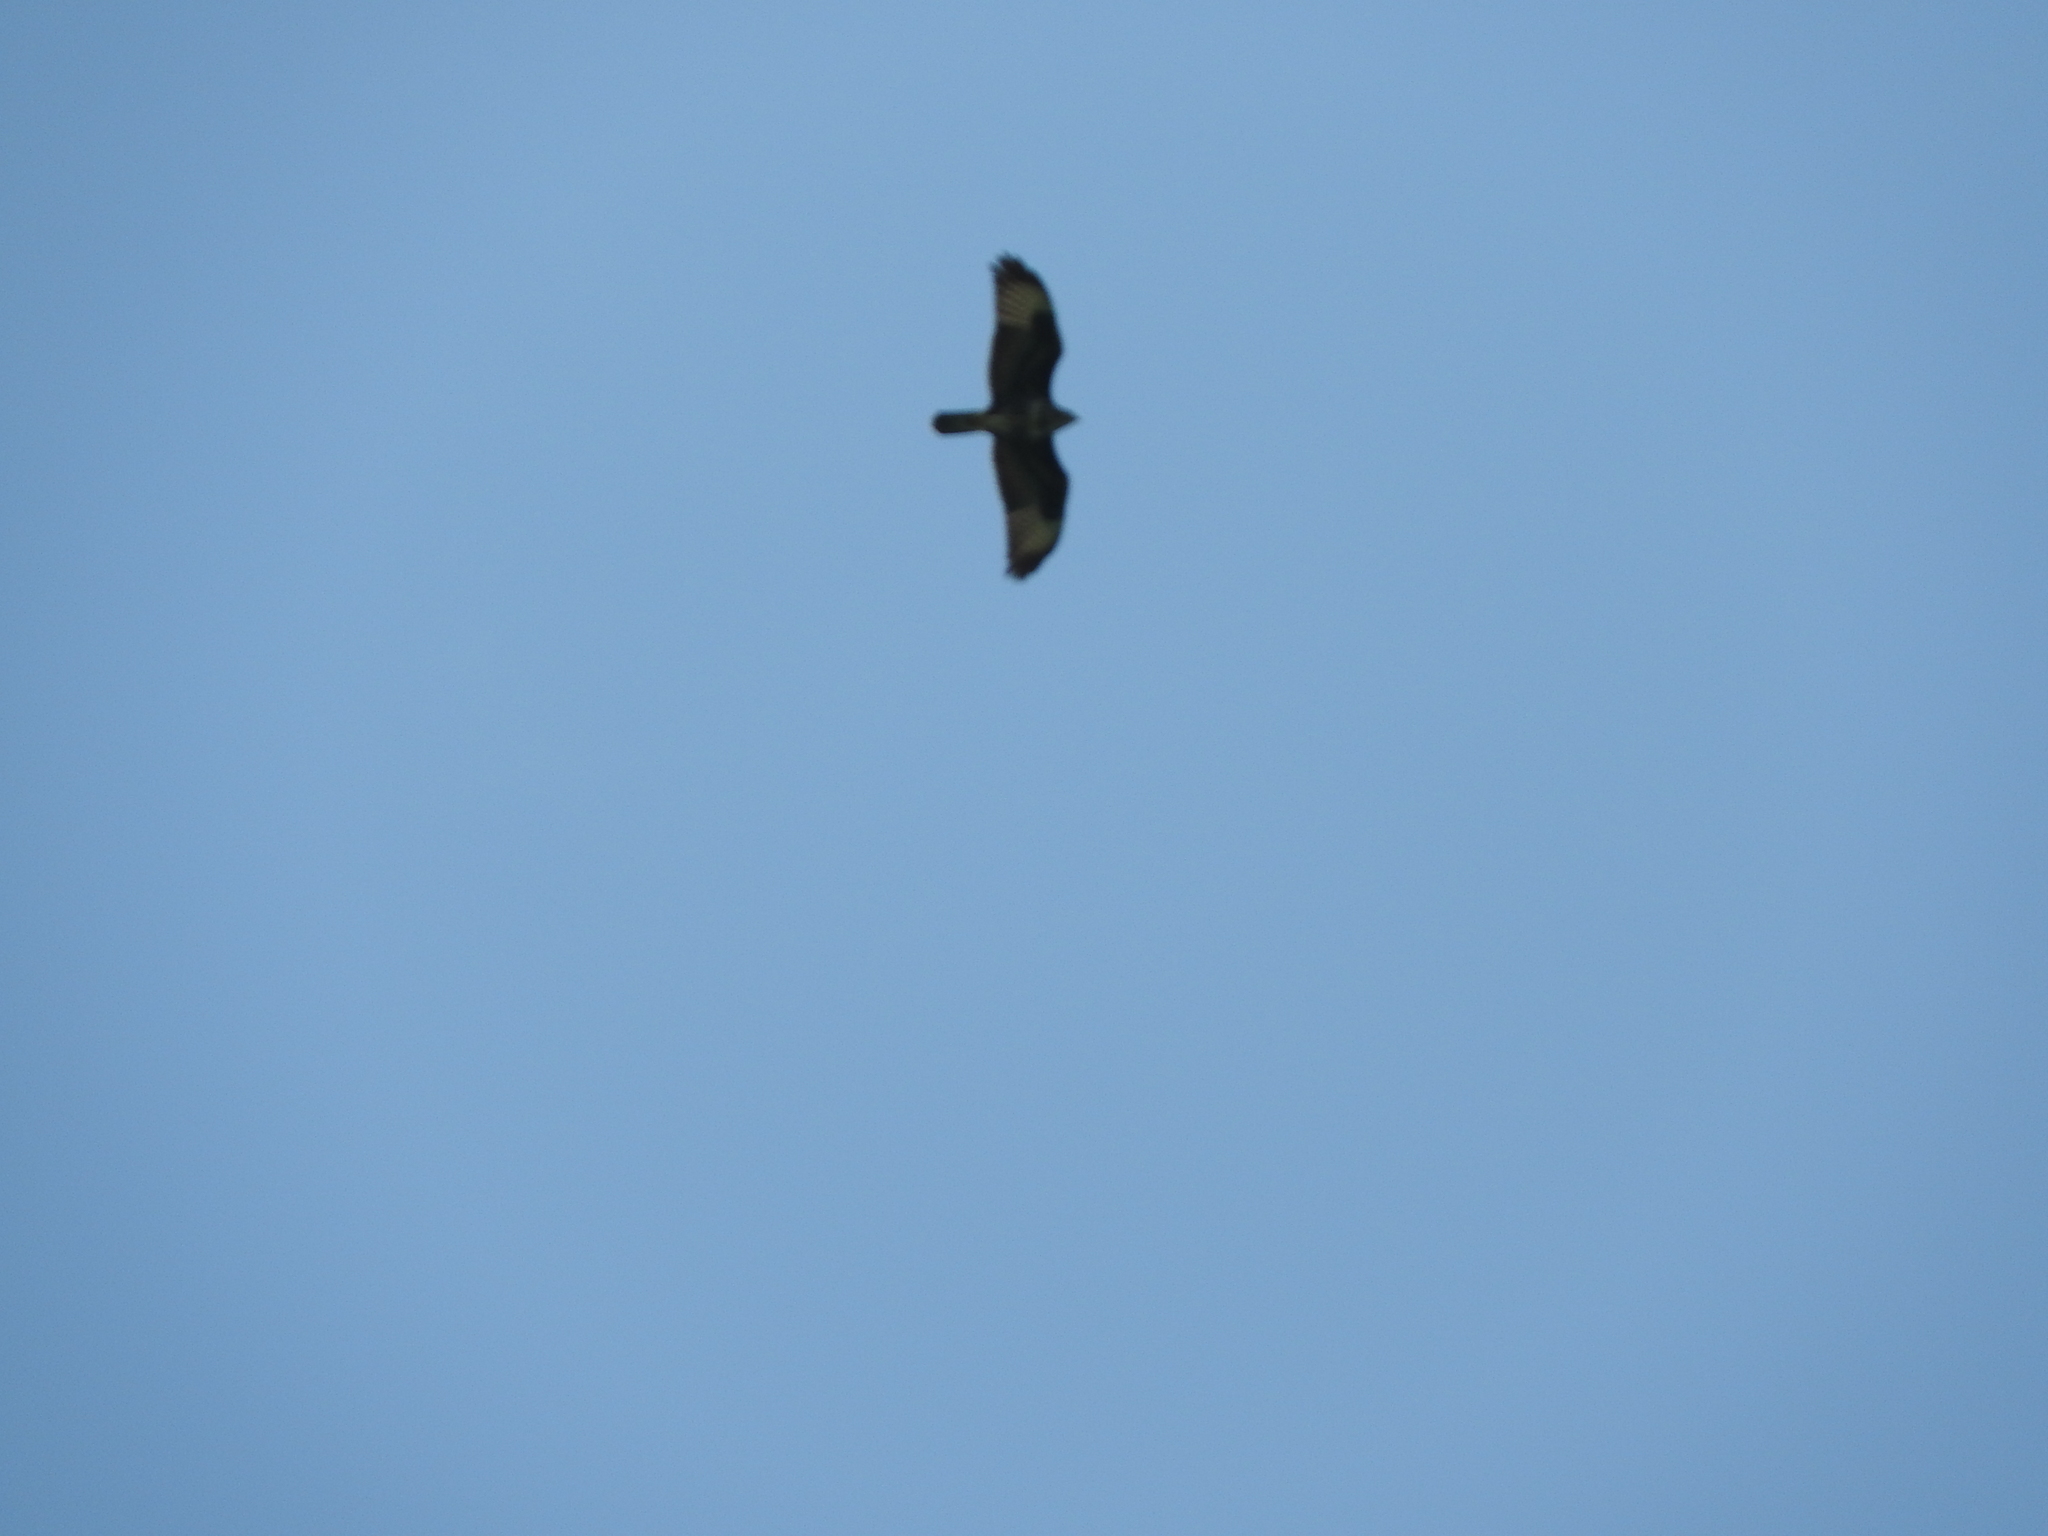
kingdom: Animalia
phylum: Chordata
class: Aves
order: Accipitriformes
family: Accipitridae
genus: Buteo
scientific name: Buteo buteo
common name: Common buzzard
